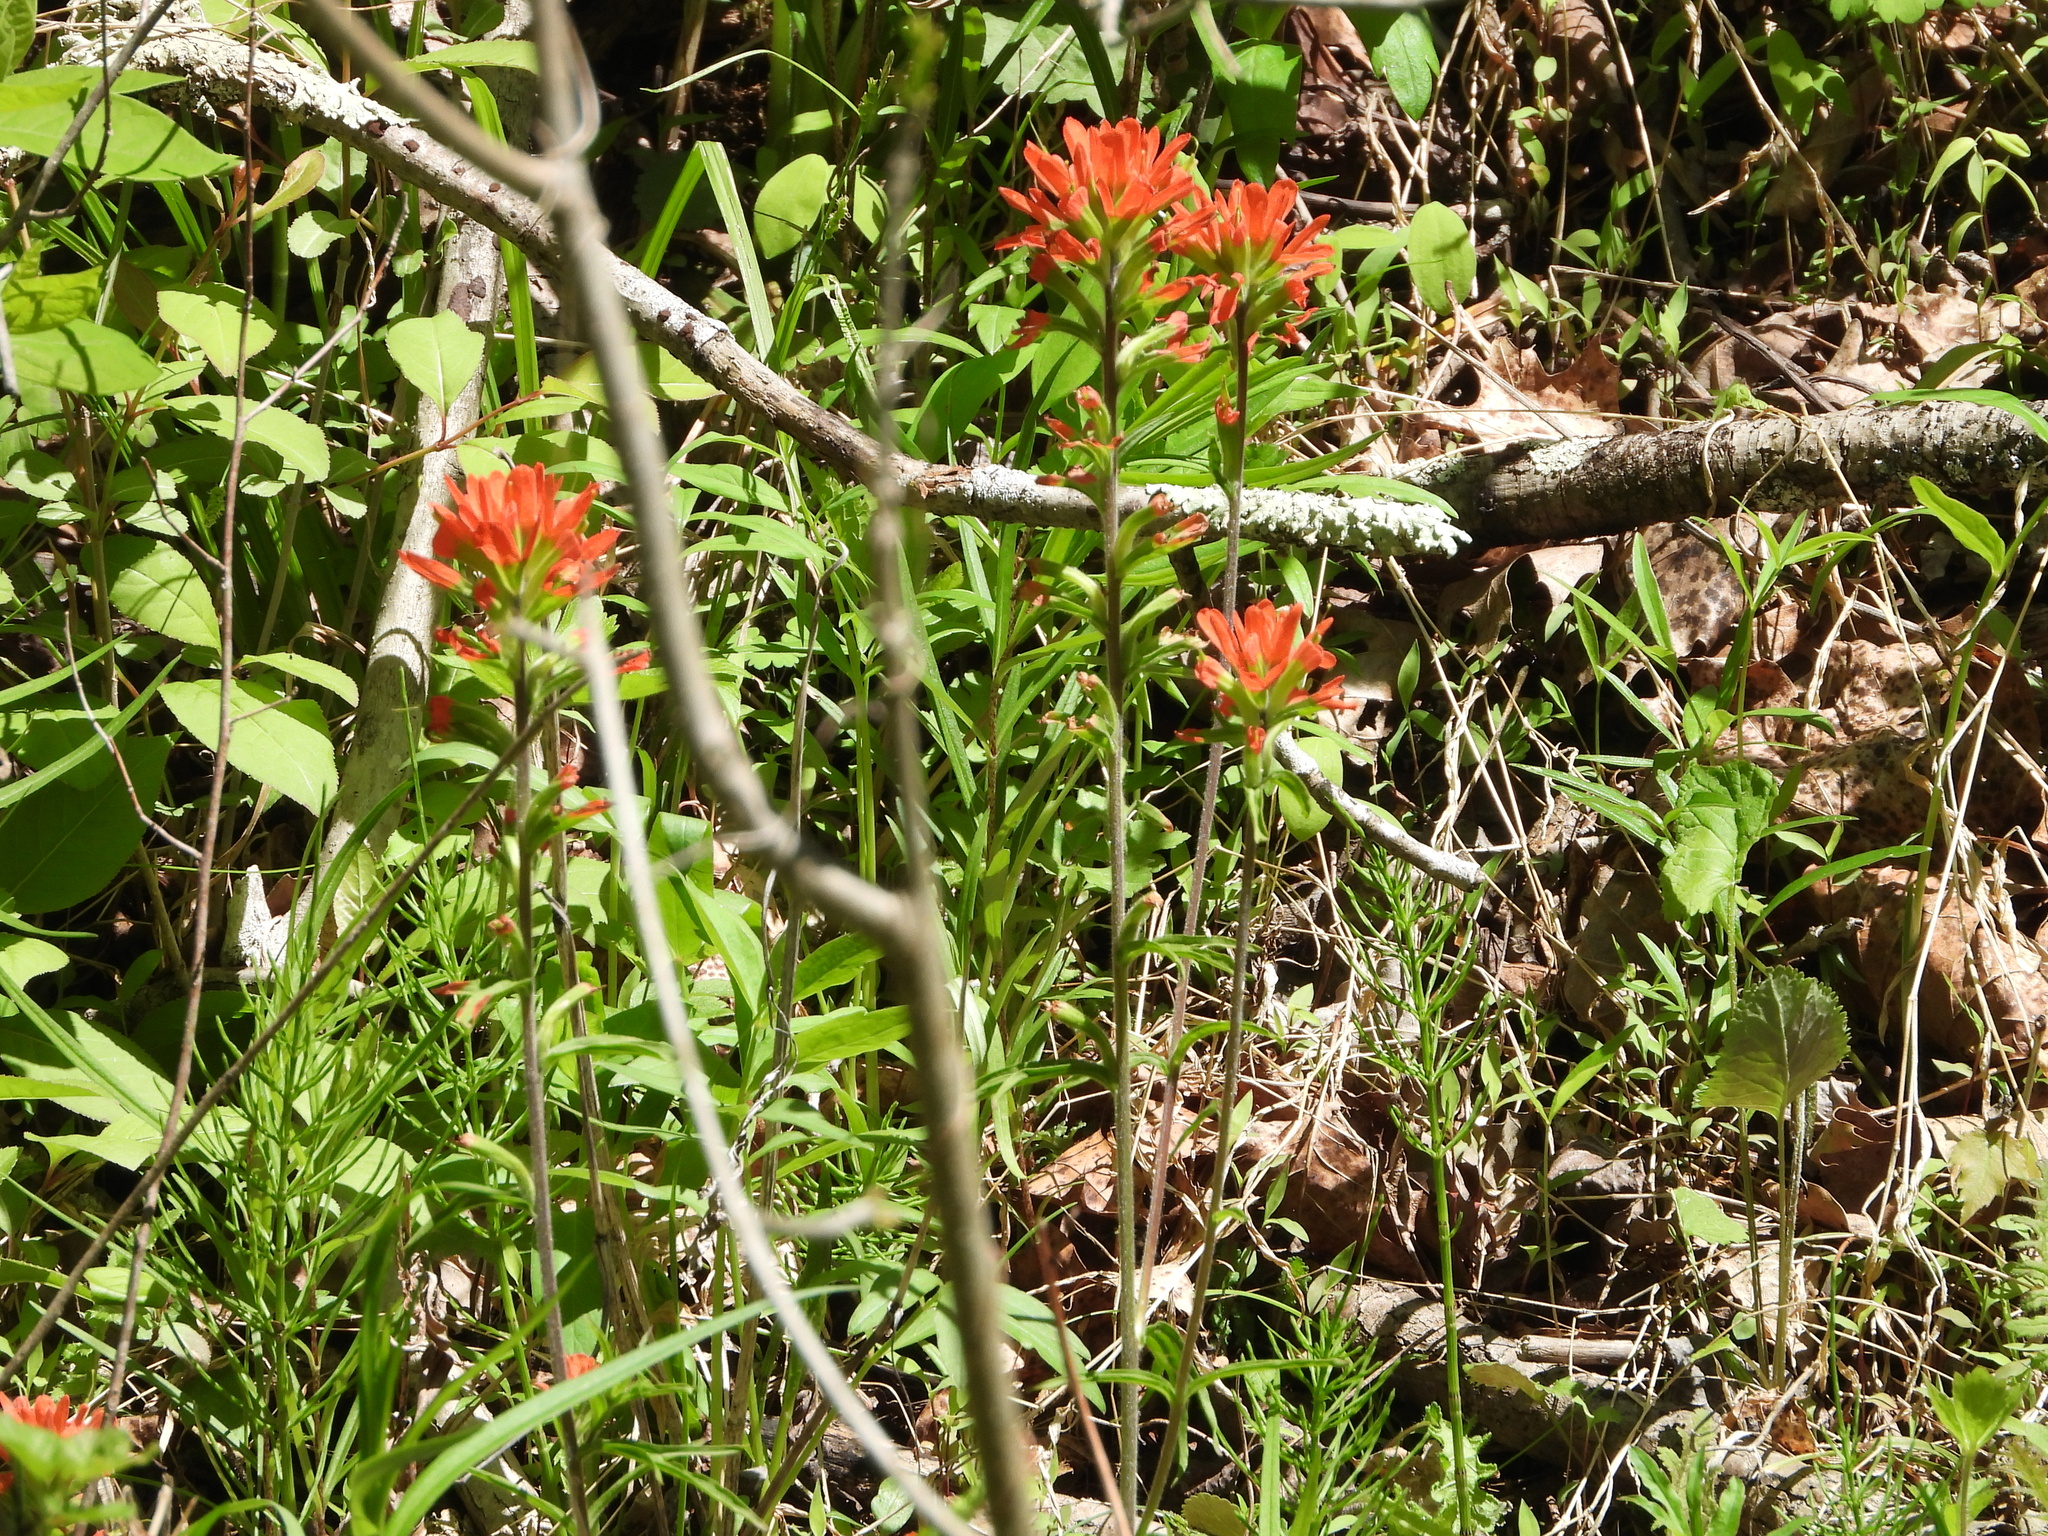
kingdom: Plantae
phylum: Tracheophyta
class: Magnoliopsida
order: Lamiales
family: Orobanchaceae
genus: Castilleja
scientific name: Castilleja coccinea
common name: Scarlet paintbrush
